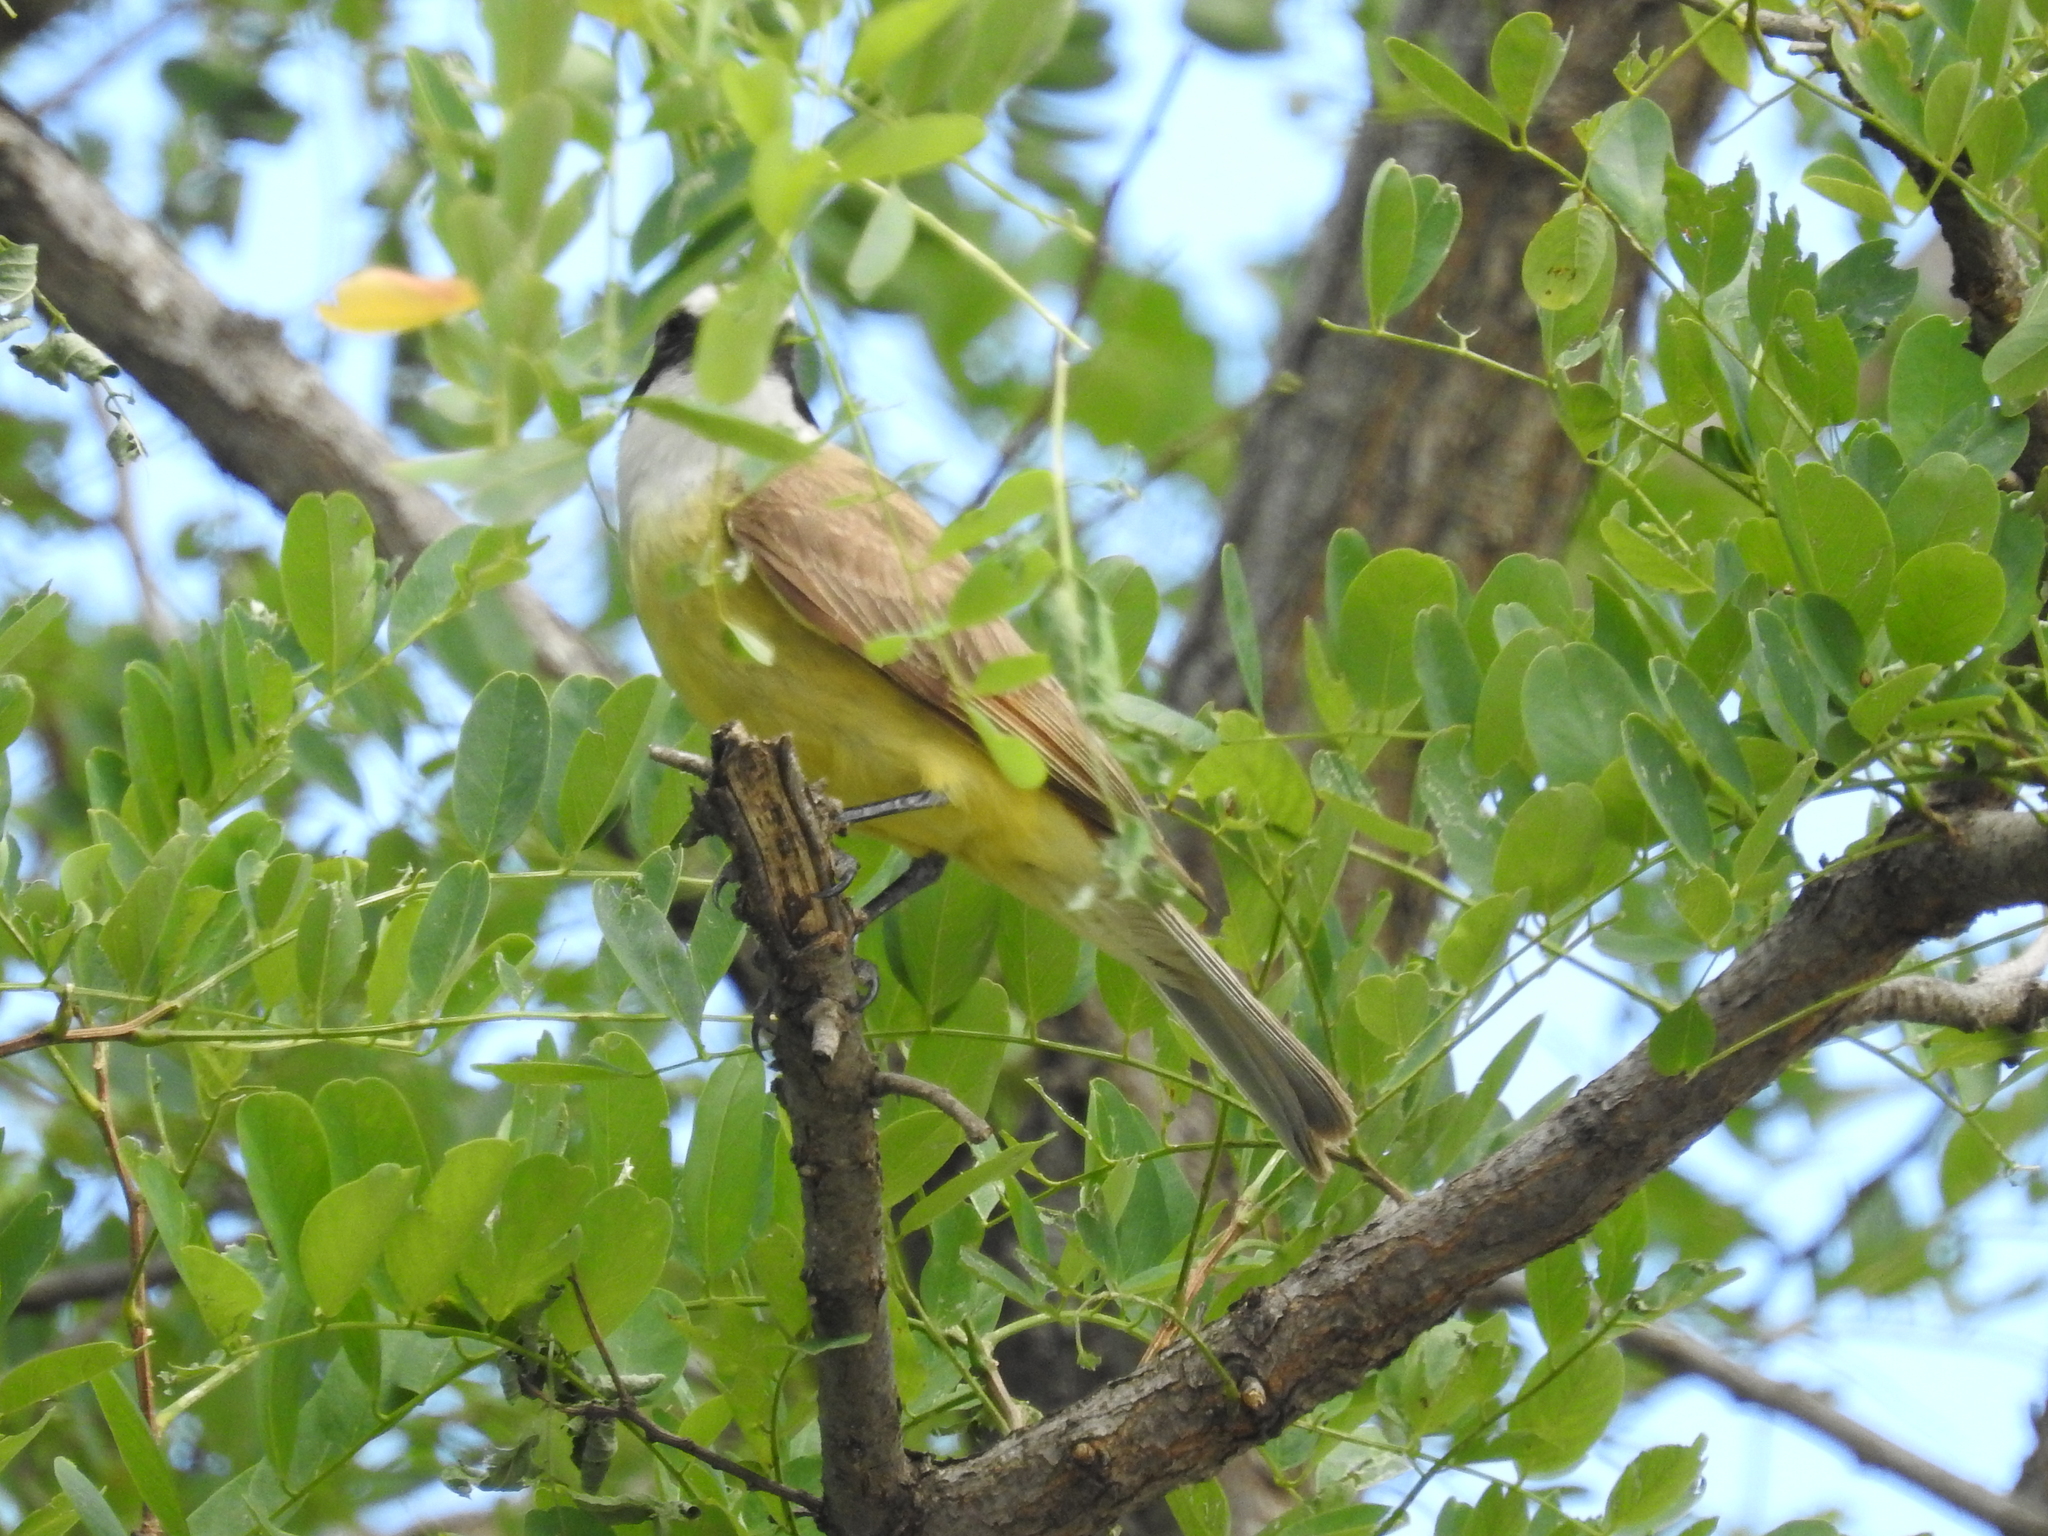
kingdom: Animalia
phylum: Chordata
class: Aves
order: Passeriformes
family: Tyrannidae
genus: Pitangus
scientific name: Pitangus sulphuratus
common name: Great kiskadee
